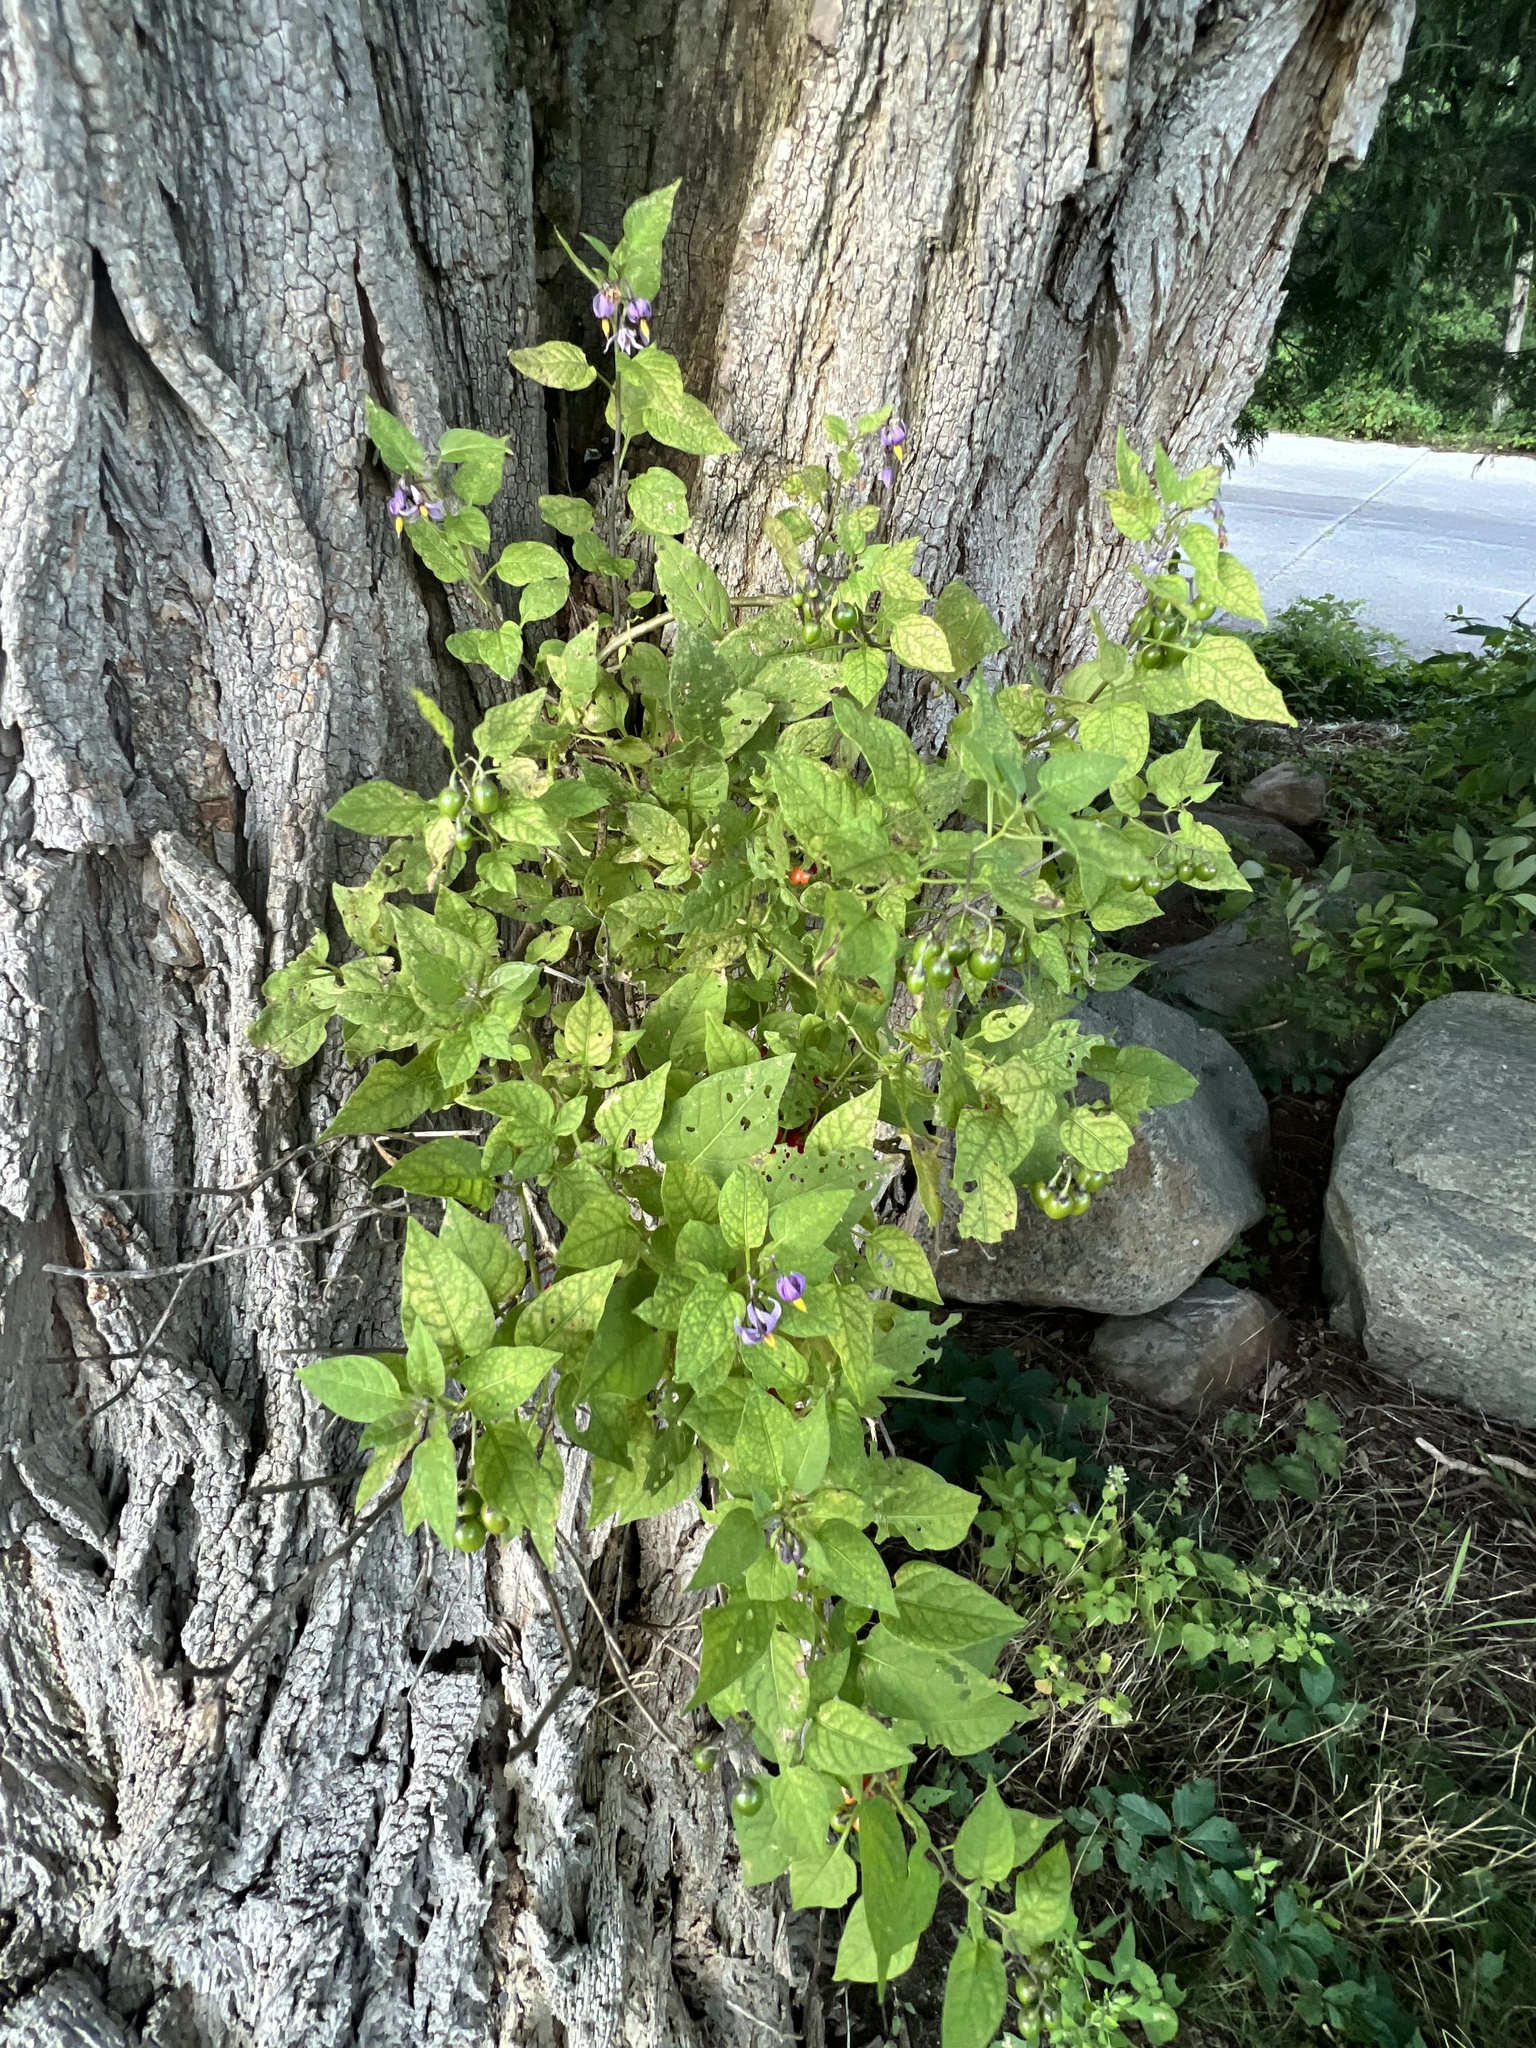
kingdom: Plantae
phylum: Tracheophyta
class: Magnoliopsida
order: Solanales
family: Solanaceae
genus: Solanum
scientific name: Solanum dulcamara
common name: Climbing nightshade
